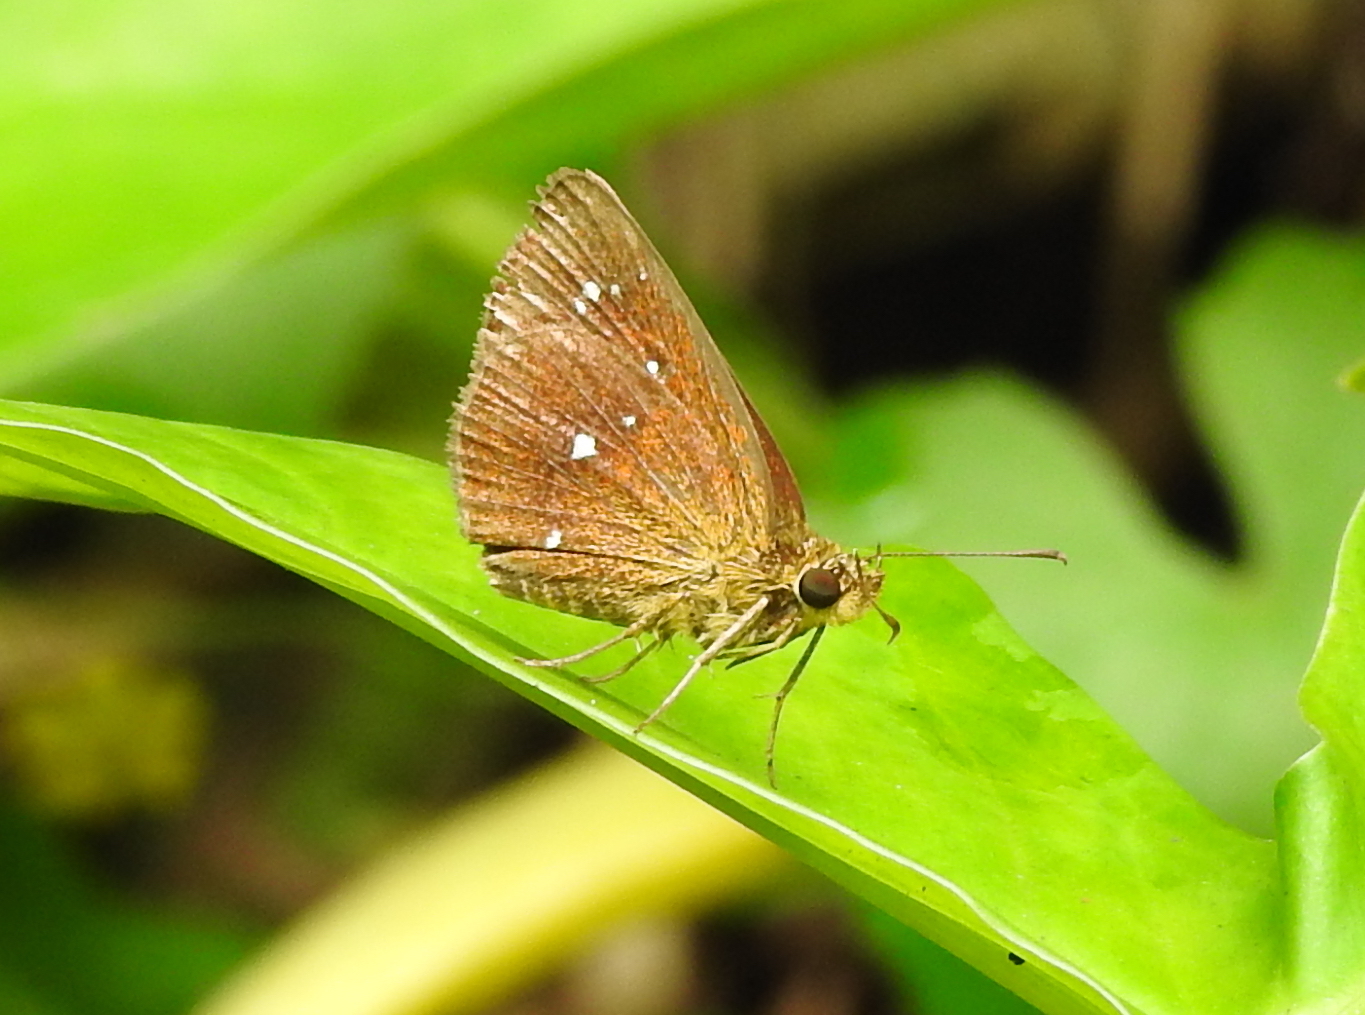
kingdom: Animalia
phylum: Arthropoda
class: Insecta
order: Lepidoptera
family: Hesperiidae
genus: Iambrix
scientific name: Iambrix salsala
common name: Chestnut bob
